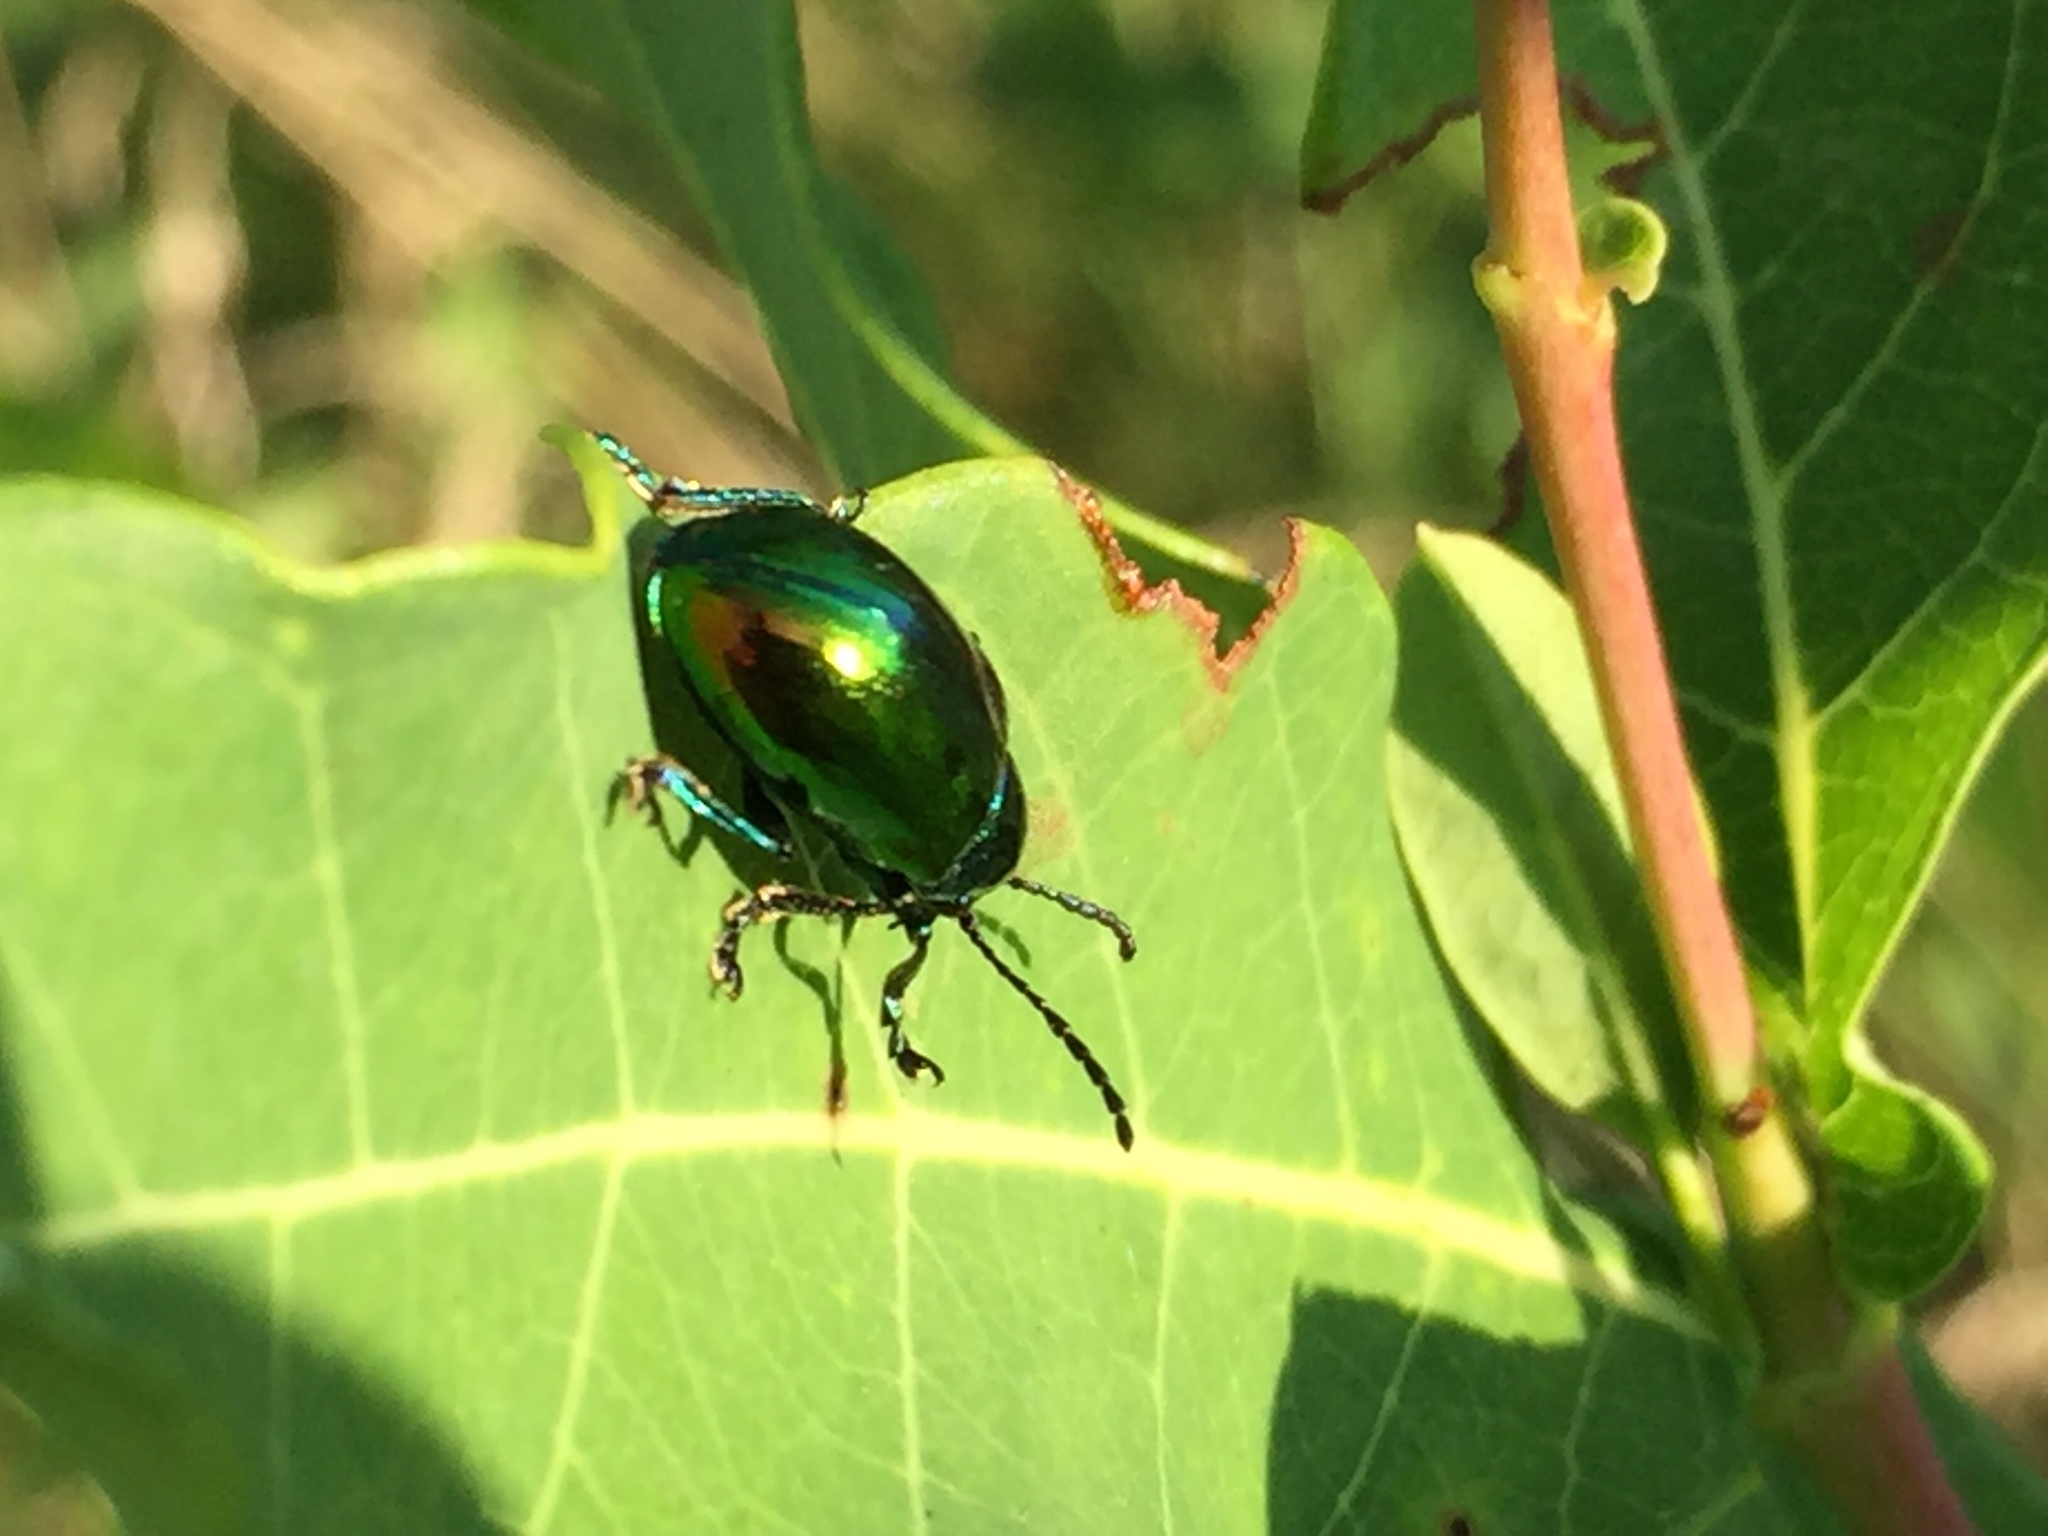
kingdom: Animalia
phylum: Arthropoda
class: Insecta
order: Coleoptera
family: Chrysomelidae
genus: Chrysochus
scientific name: Chrysochus auratus
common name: Dogbane leaf beetle
